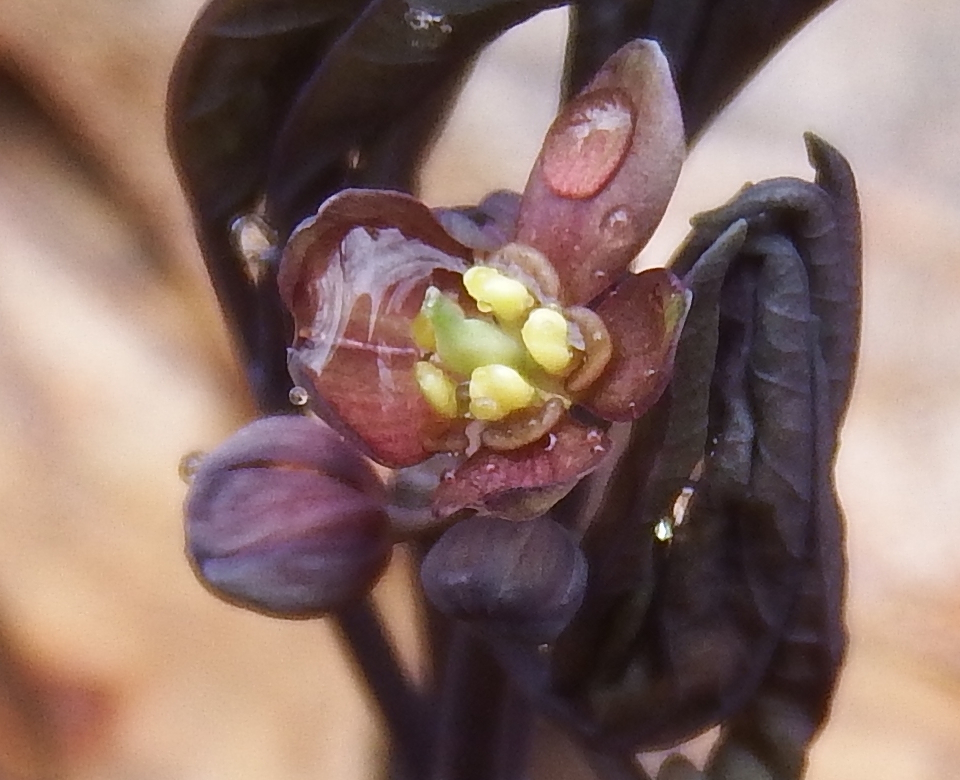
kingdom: Plantae
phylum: Tracheophyta
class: Magnoliopsida
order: Ranunculales
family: Berberidaceae
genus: Caulophyllum
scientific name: Caulophyllum giganteum
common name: Blue cohosh
